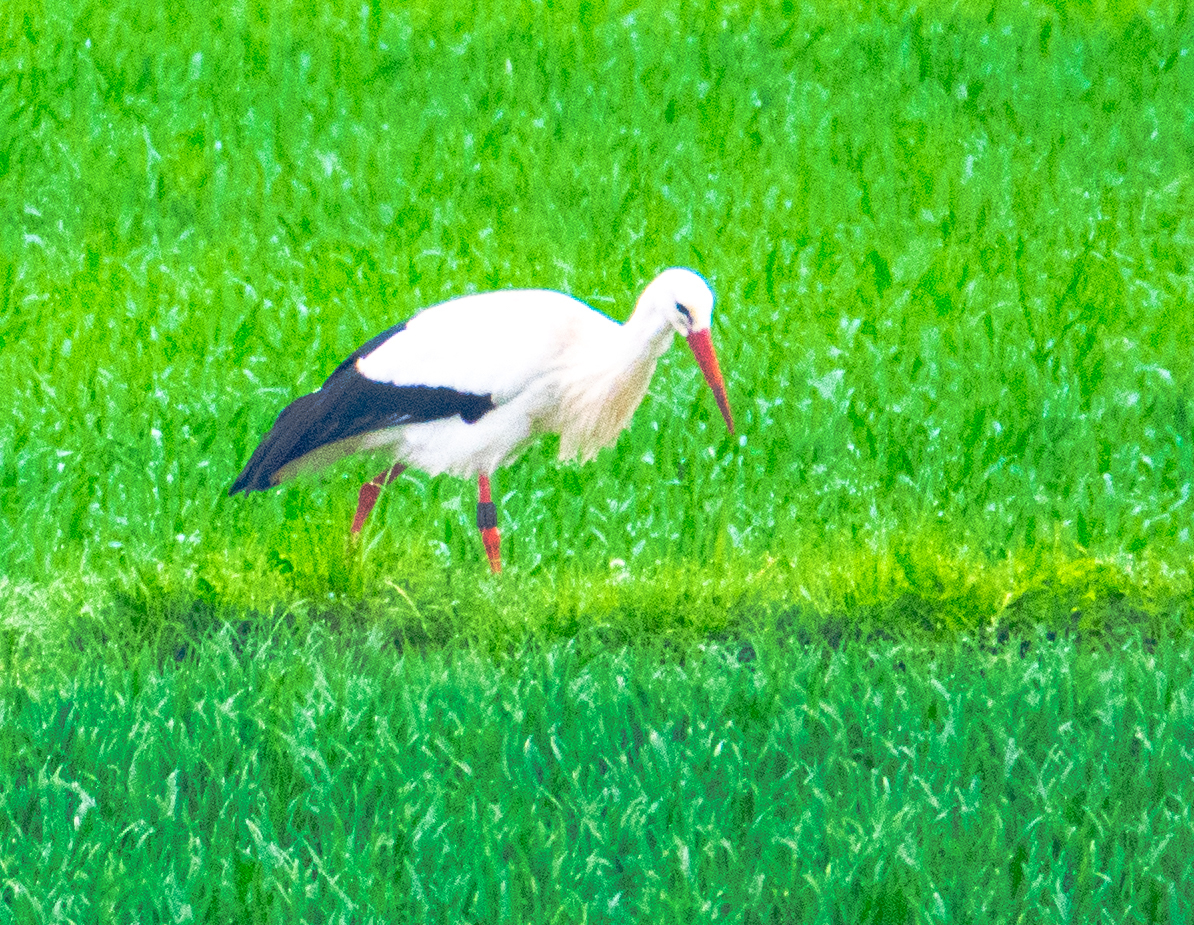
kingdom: Animalia
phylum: Chordata
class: Aves
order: Ciconiiformes
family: Ciconiidae
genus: Ciconia
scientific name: Ciconia ciconia
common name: White stork
